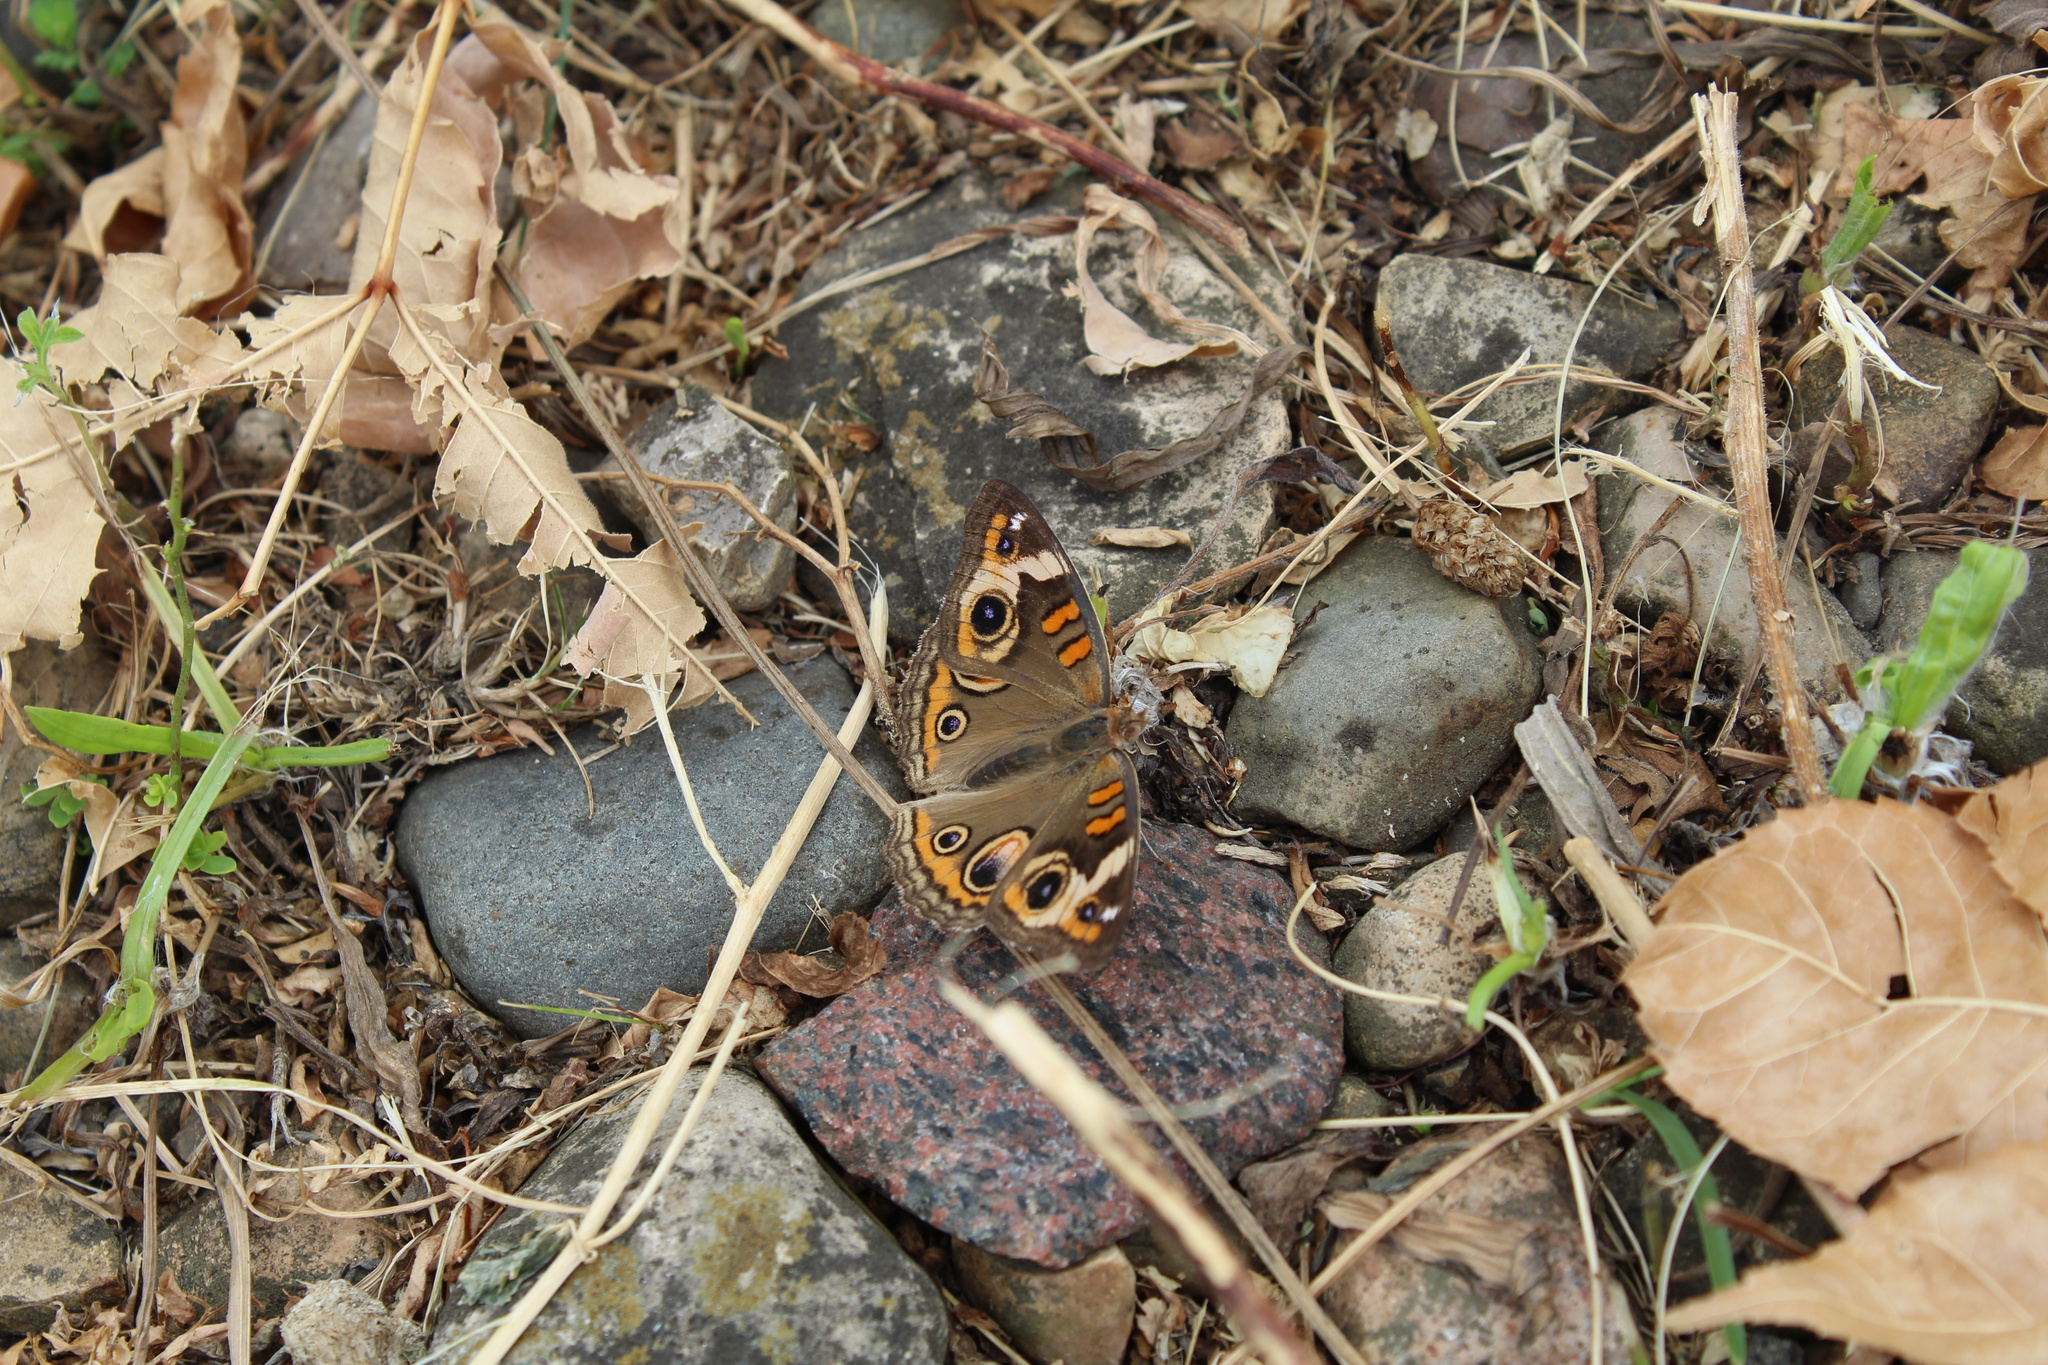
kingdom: Animalia
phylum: Arthropoda
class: Insecta
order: Lepidoptera
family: Nymphalidae
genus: Junonia
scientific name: Junonia coenia
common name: Common buckeye
